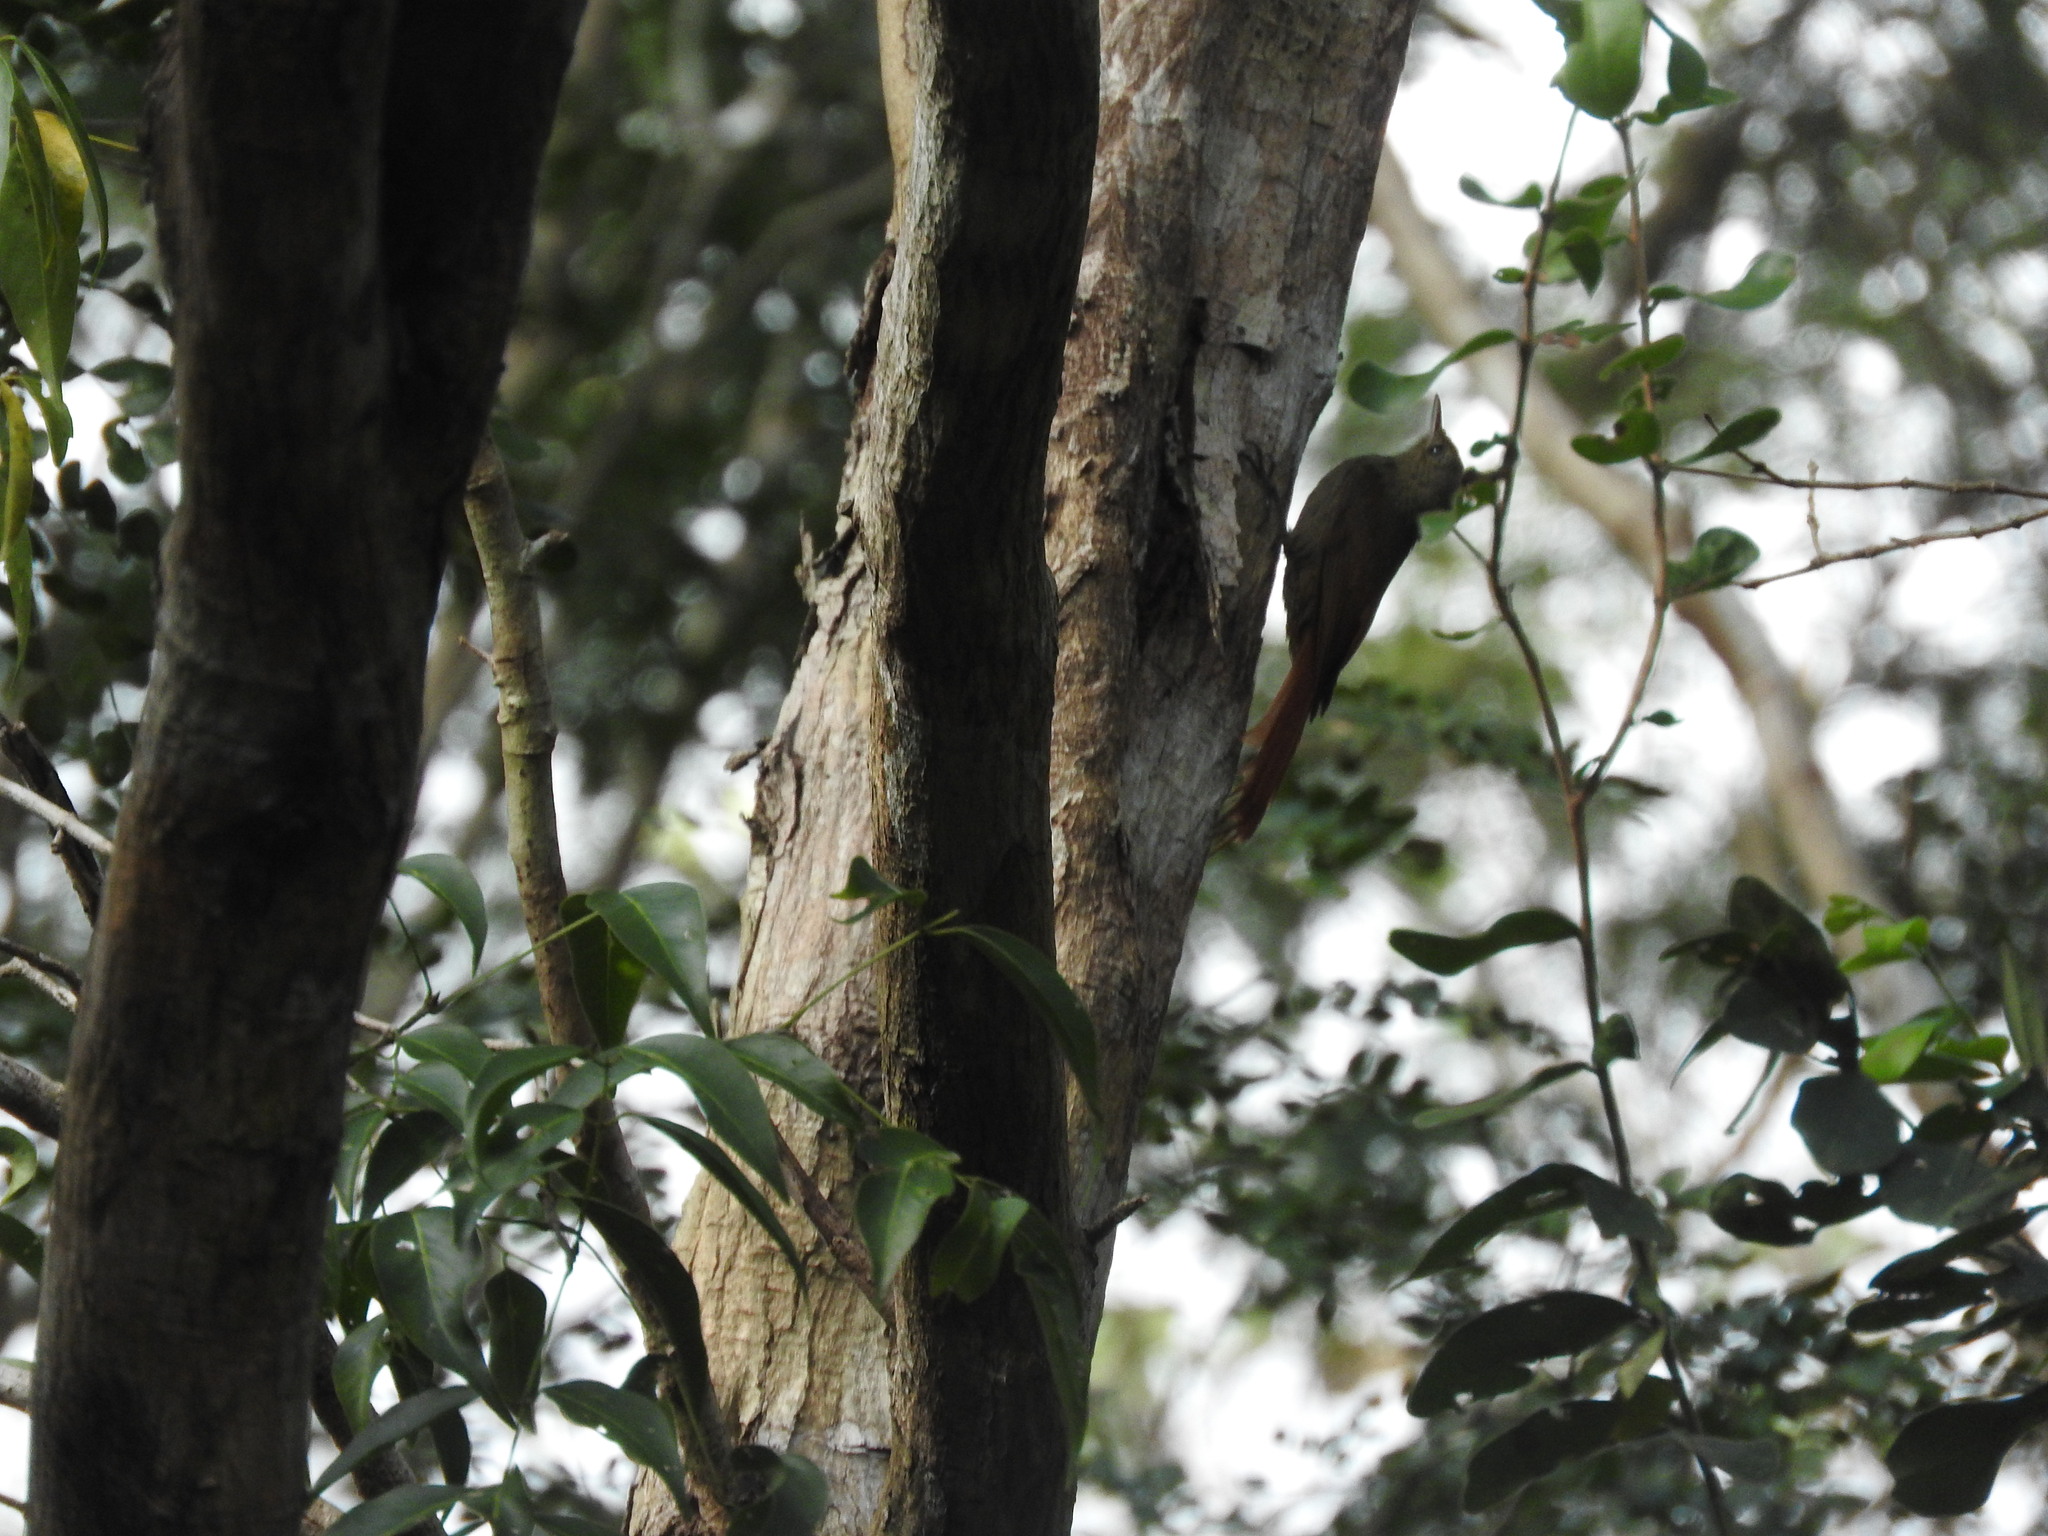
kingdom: Animalia
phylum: Chordata
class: Aves
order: Passeriformes
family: Furnariidae
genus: Sittasomus
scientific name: Sittasomus griseicapillus
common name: Olivaceous woodcreeper
